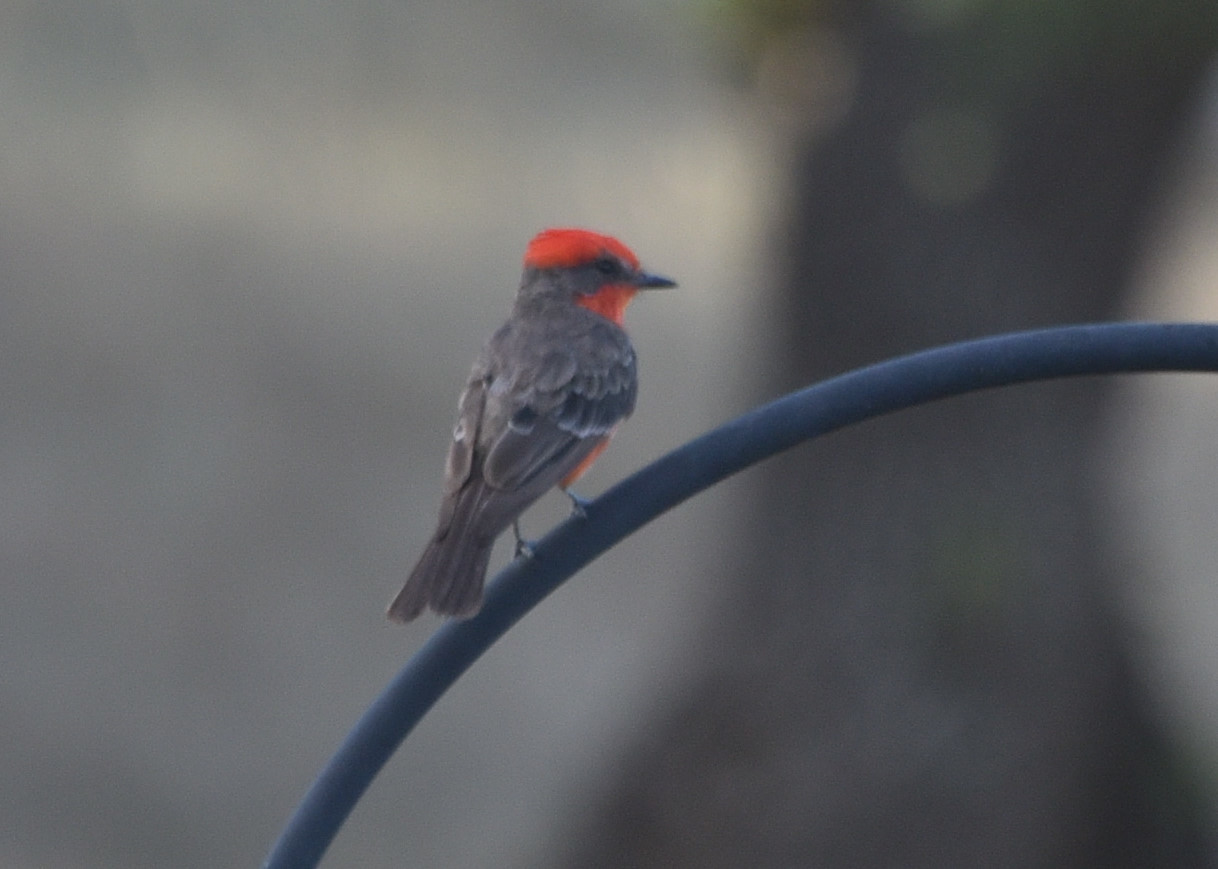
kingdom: Animalia
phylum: Chordata
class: Aves
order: Passeriformes
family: Tyrannidae
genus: Pyrocephalus
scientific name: Pyrocephalus rubinus
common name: Vermilion flycatcher
